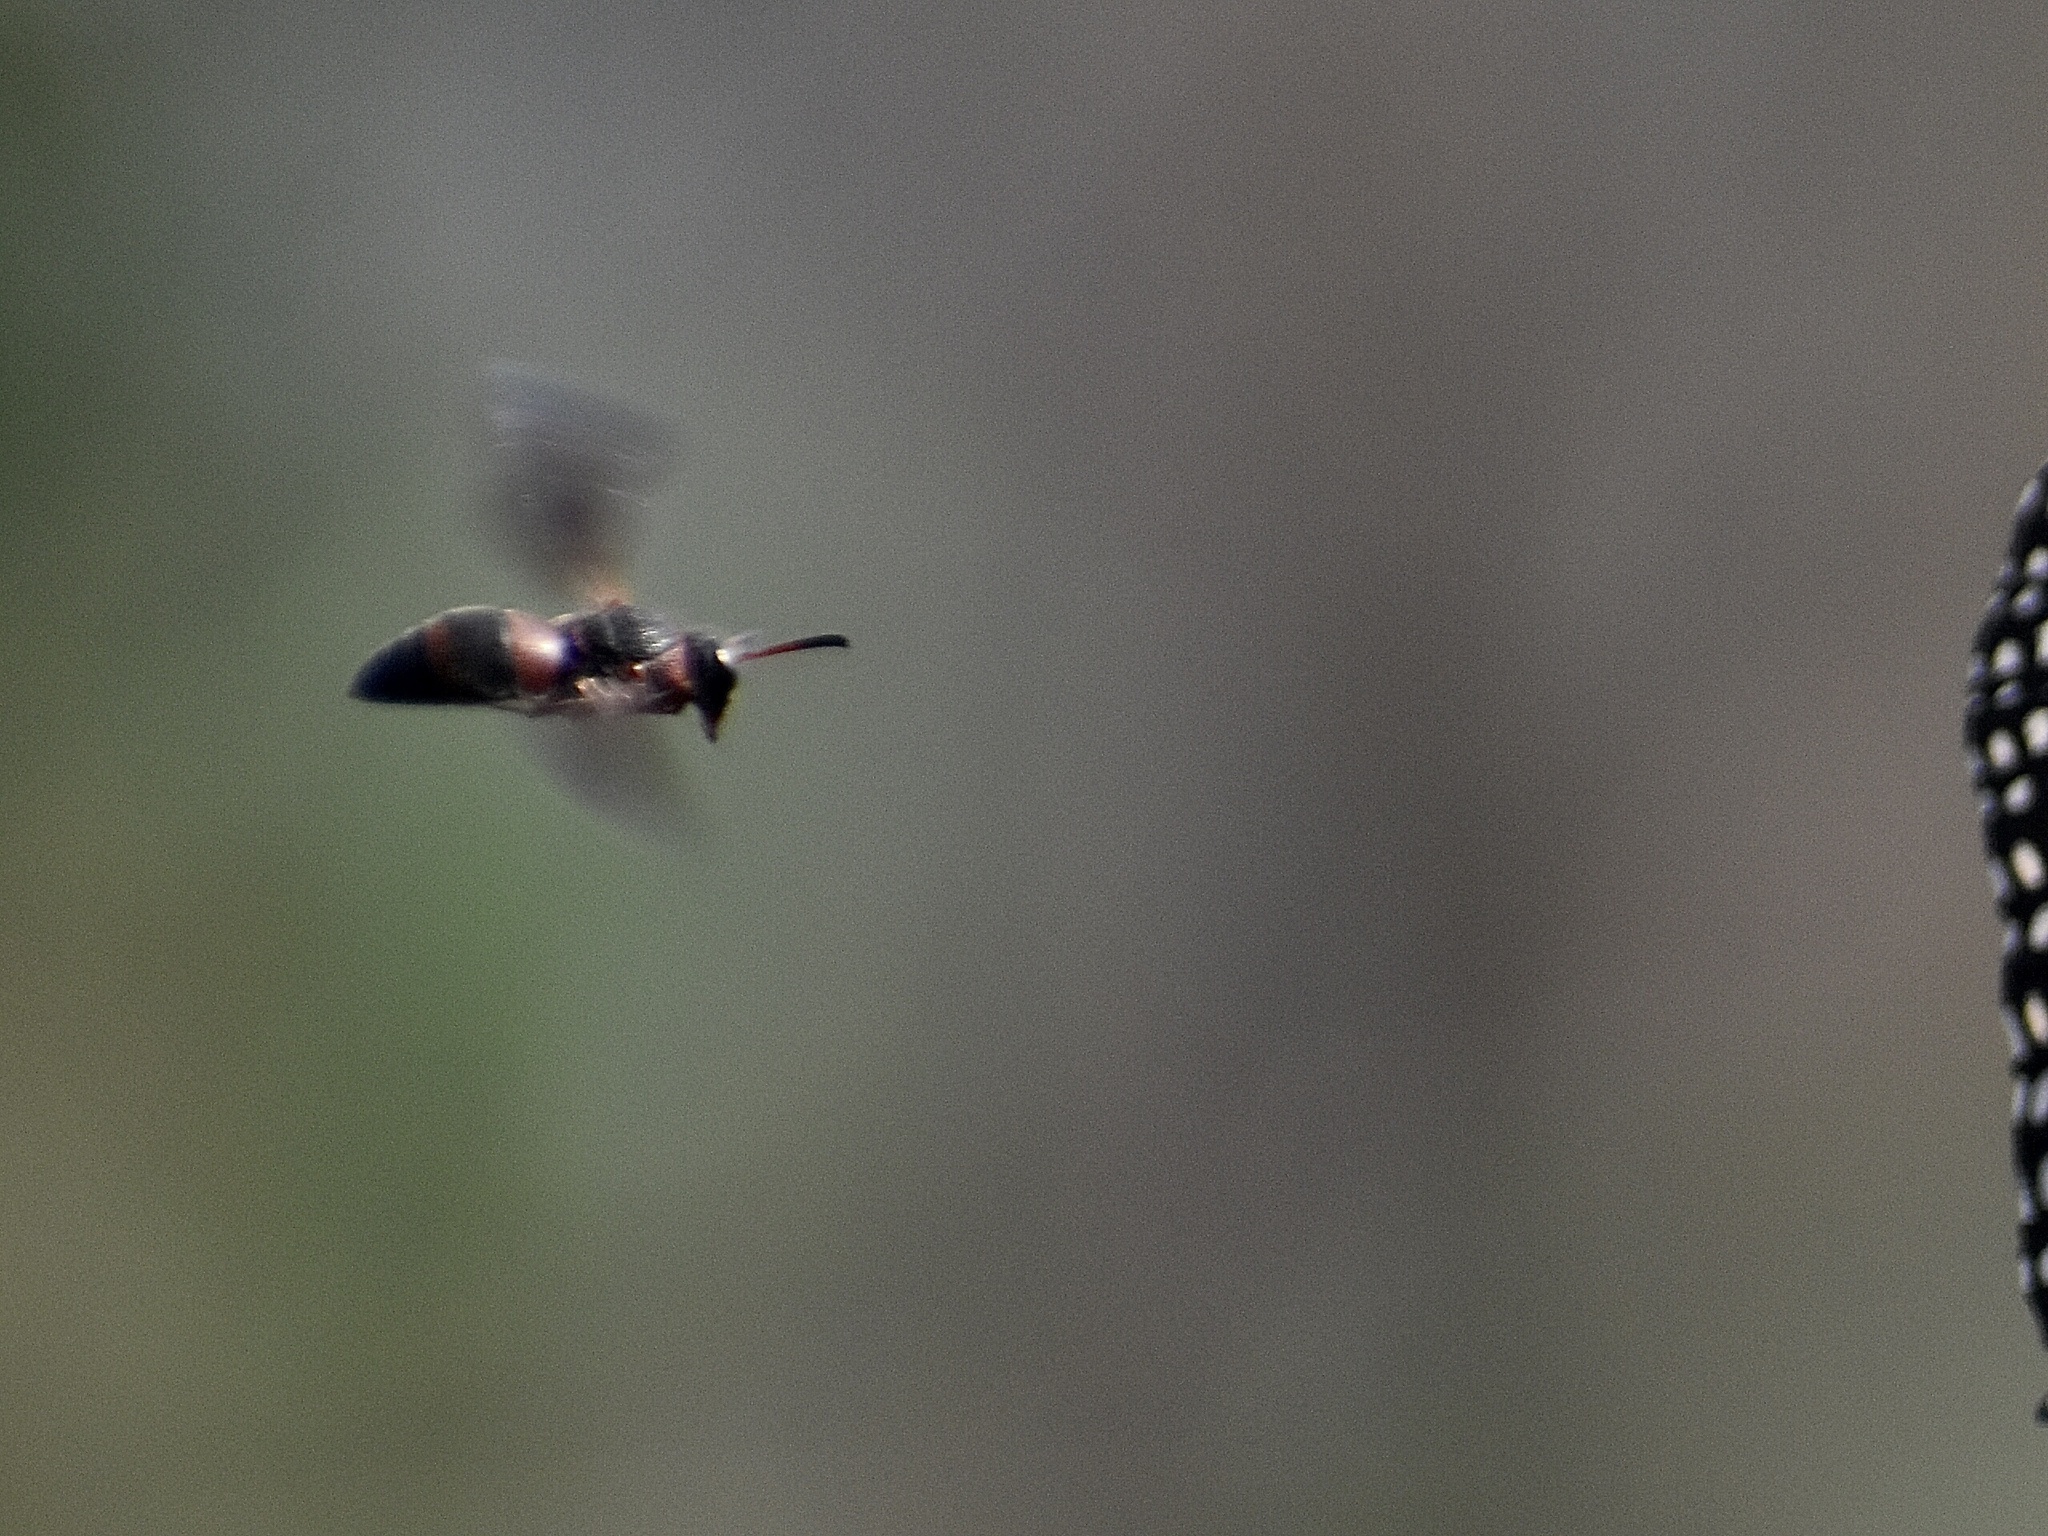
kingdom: Animalia
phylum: Arthropoda
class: Insecta
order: Hymenoptera
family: Eumenidae
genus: Pachodynerus
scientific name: Pachodynerus erynnis
